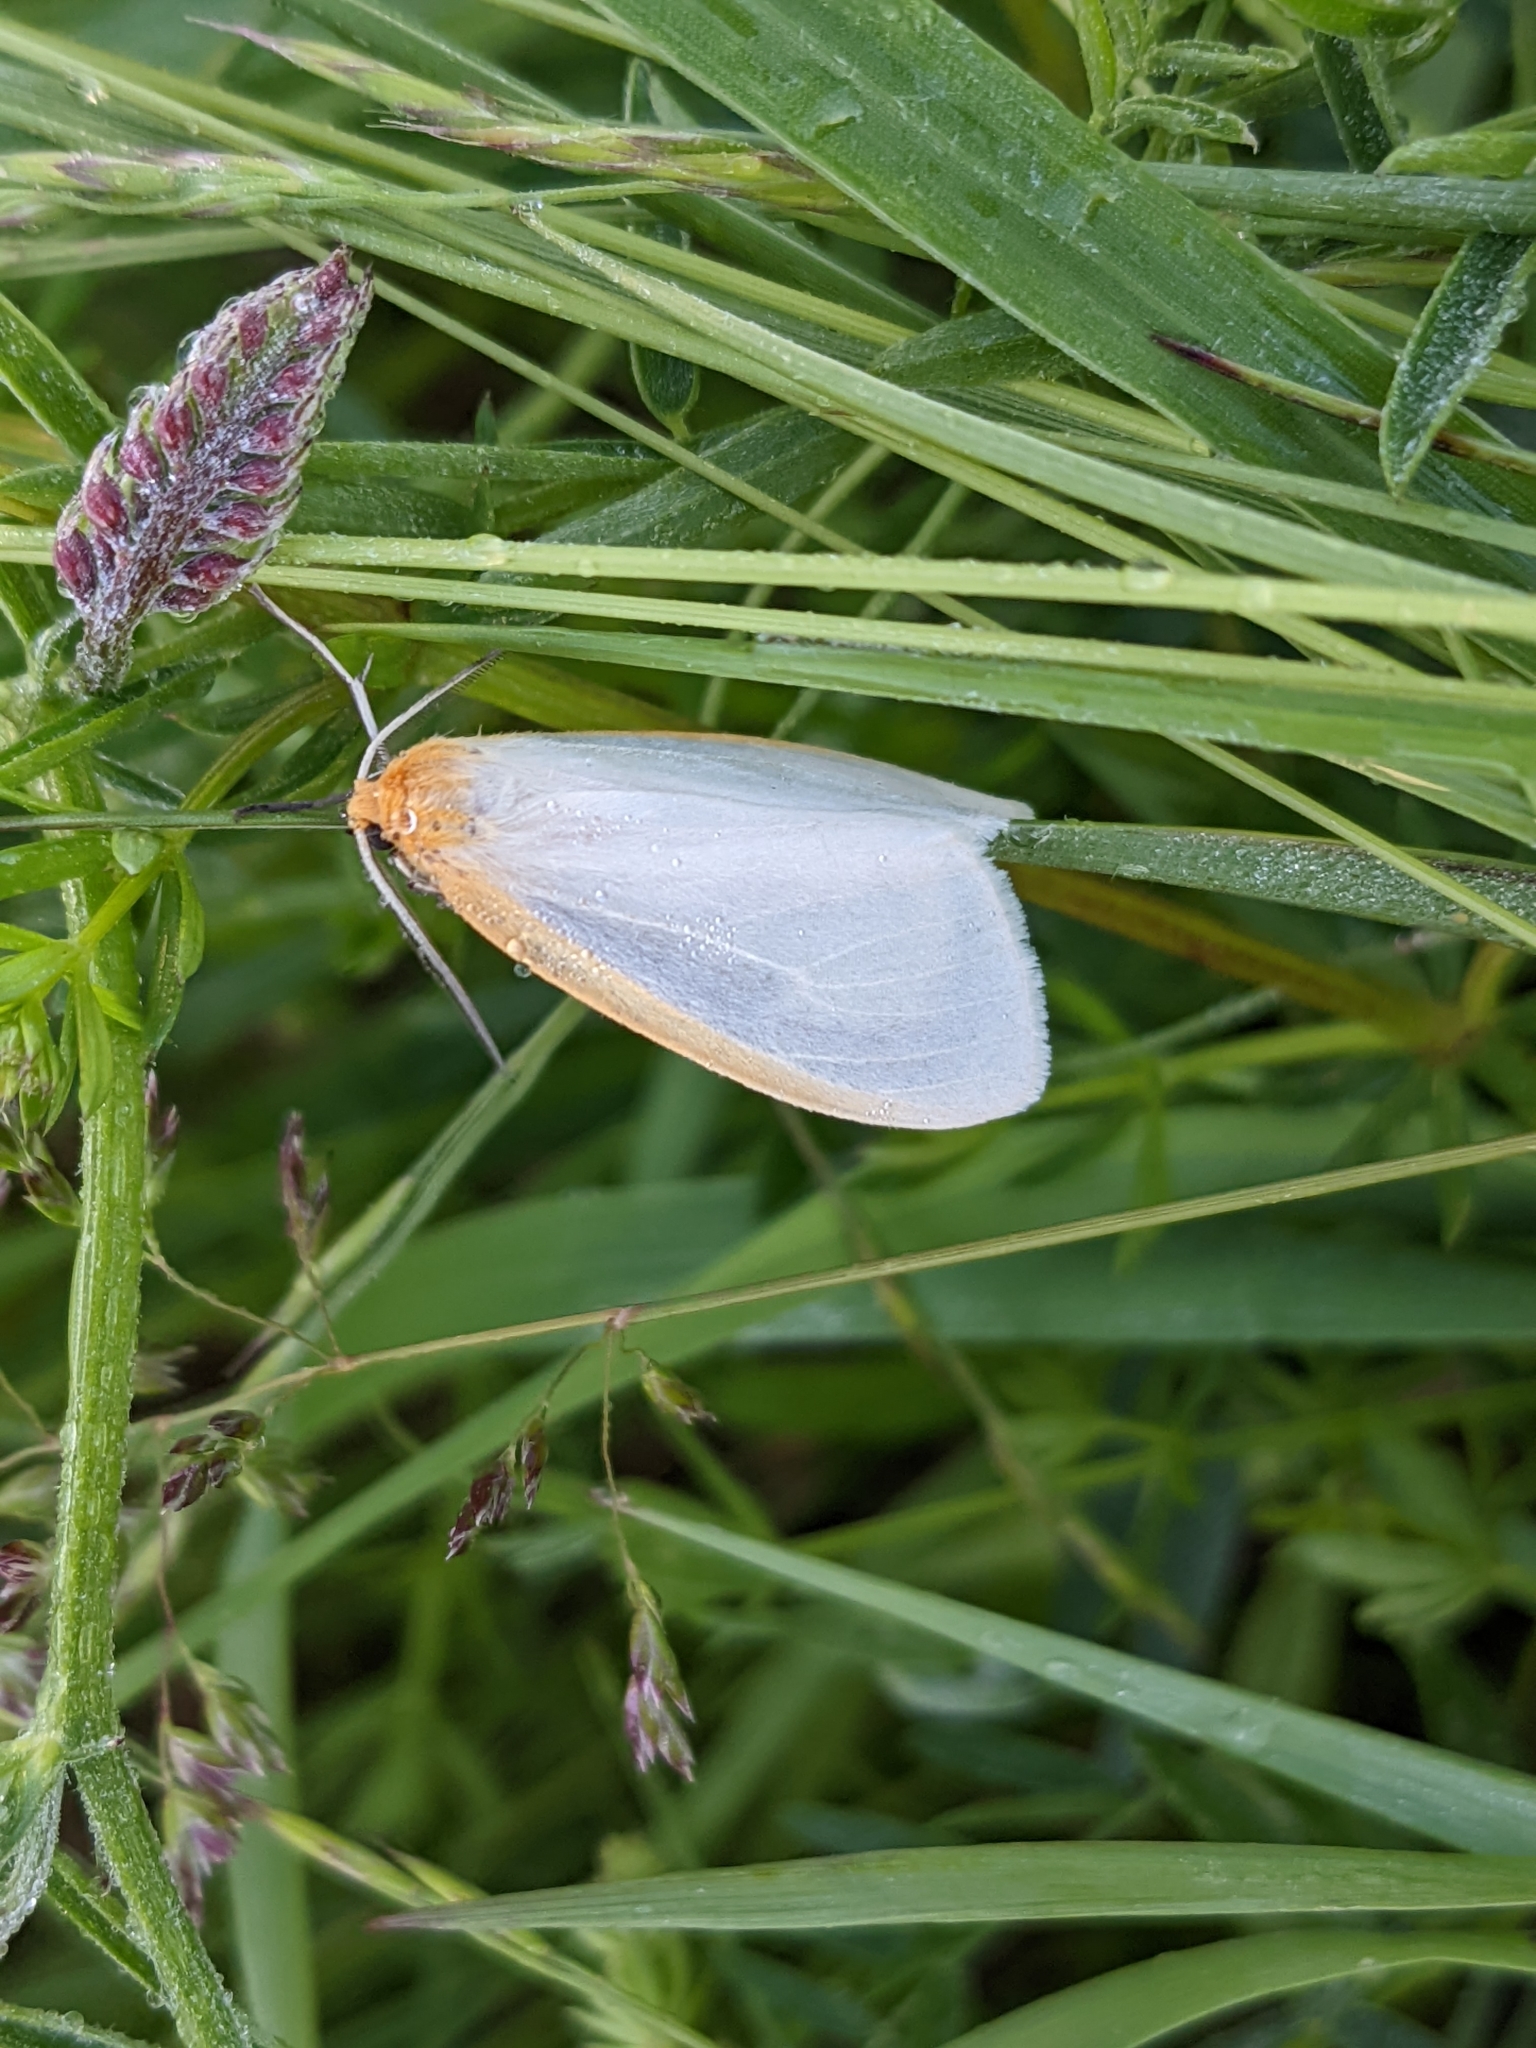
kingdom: Animalia
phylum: Arthropoda
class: Insecta
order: Lepidoptera
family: Erebidae
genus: Cycnia
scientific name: Cycnia tenera
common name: Delicate cycnia moth
